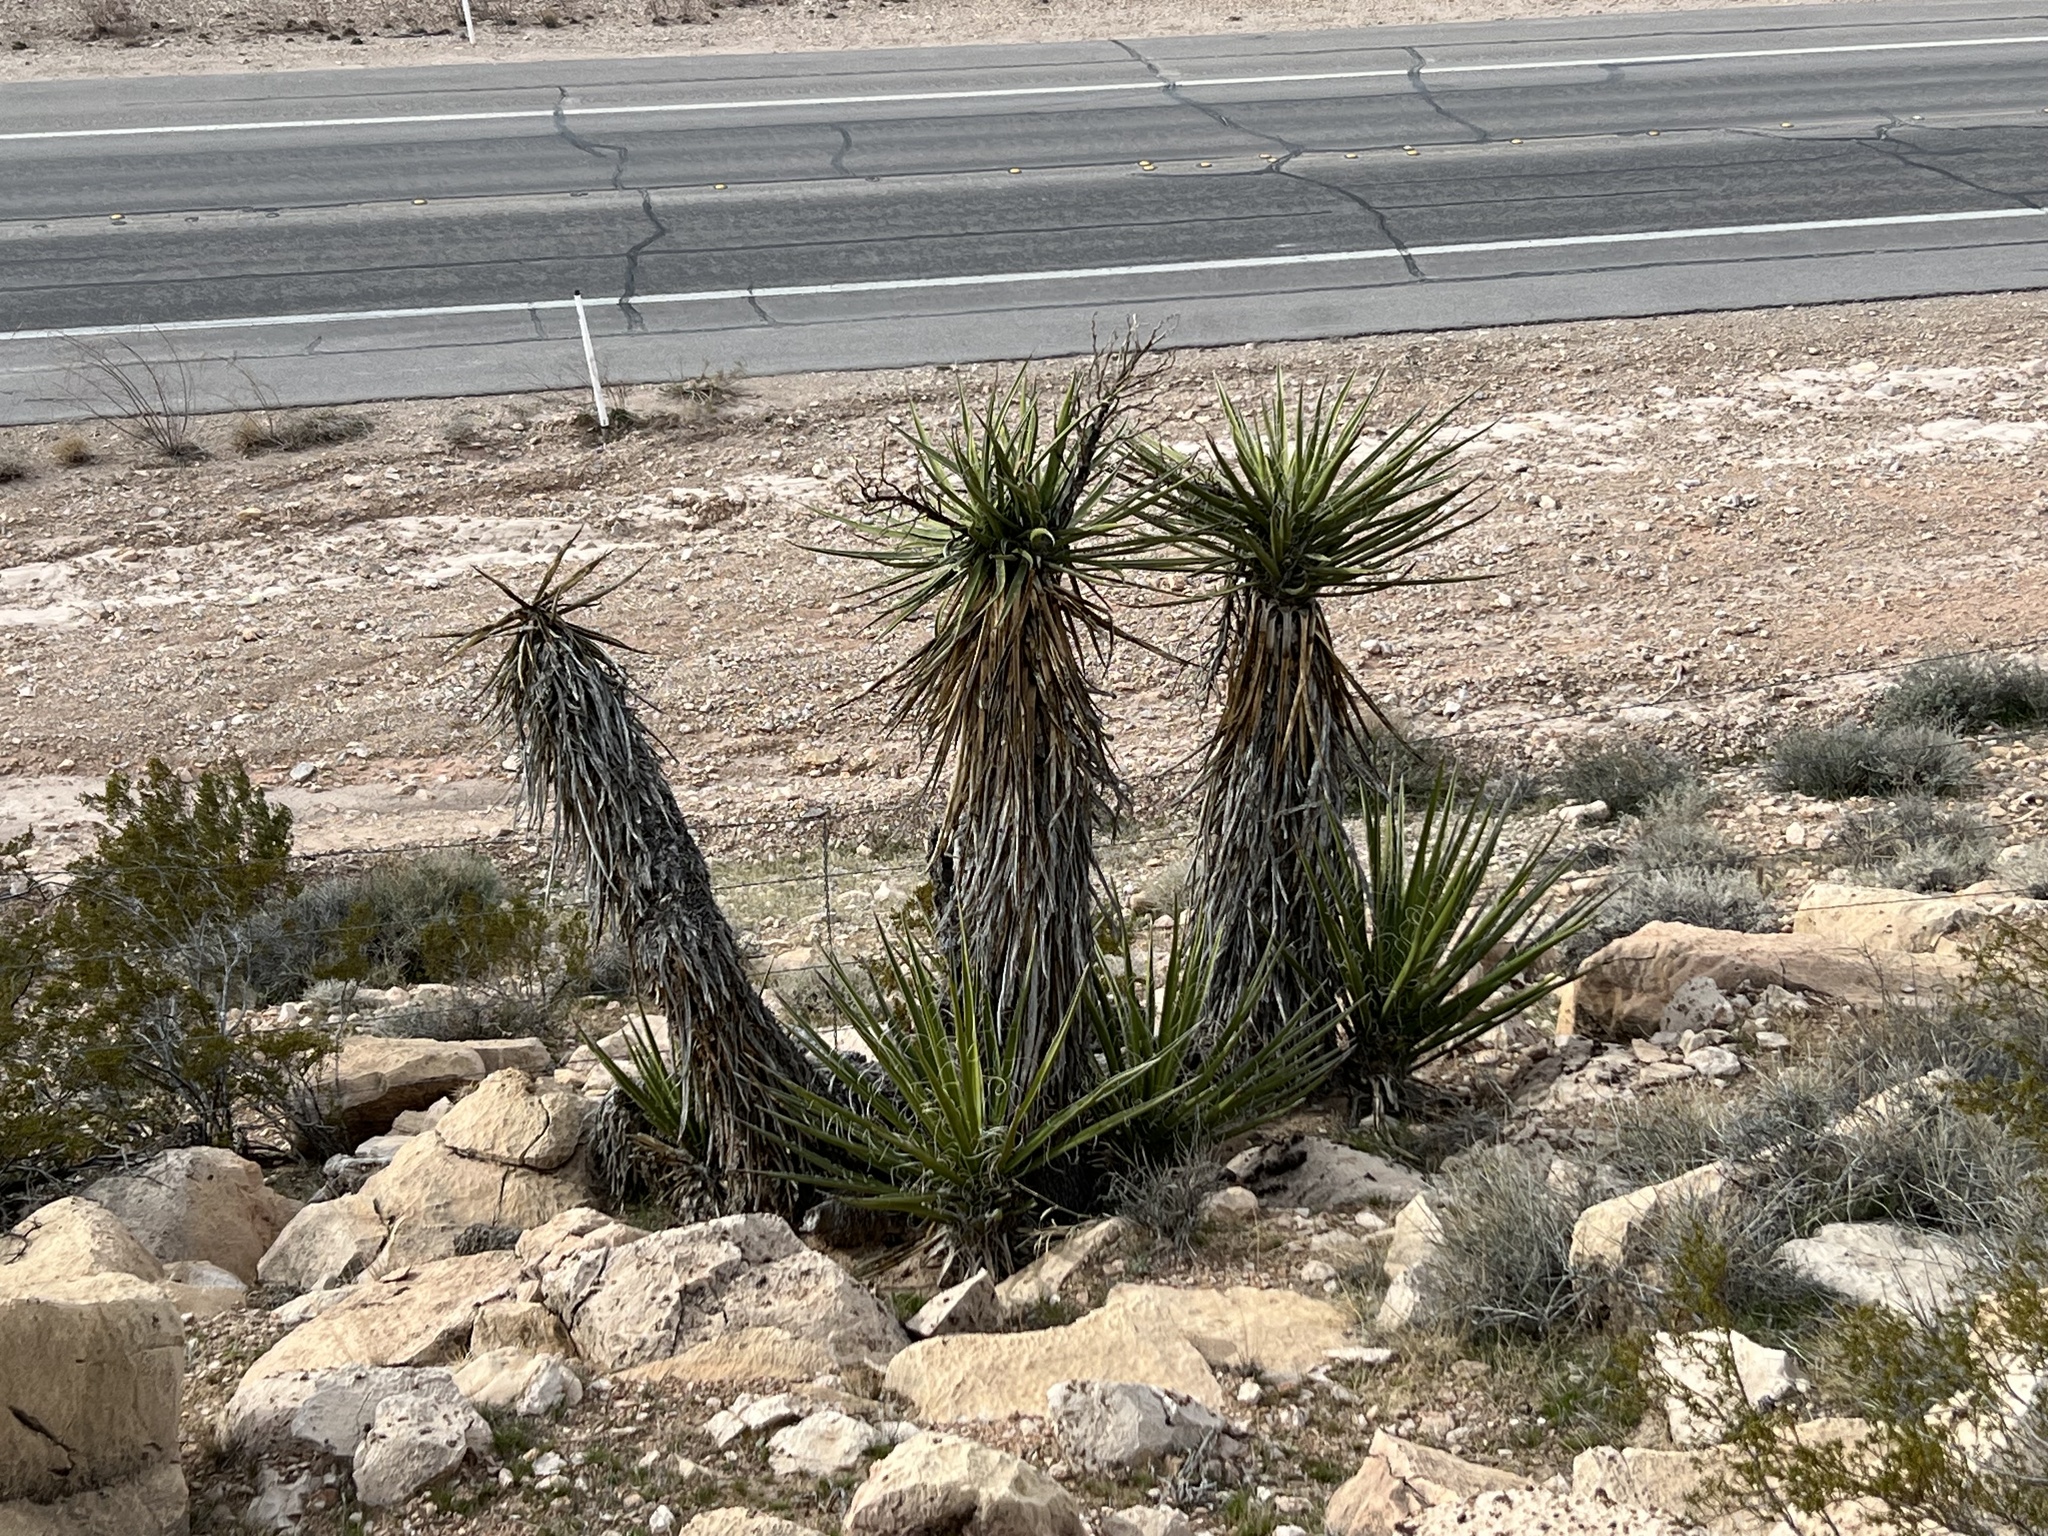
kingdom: Plantae
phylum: Tracheophyta
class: Liliopsida
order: Asparagales
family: Asparagaceae
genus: Yucca
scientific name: Yucca schidigera
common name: Mojave yucca
